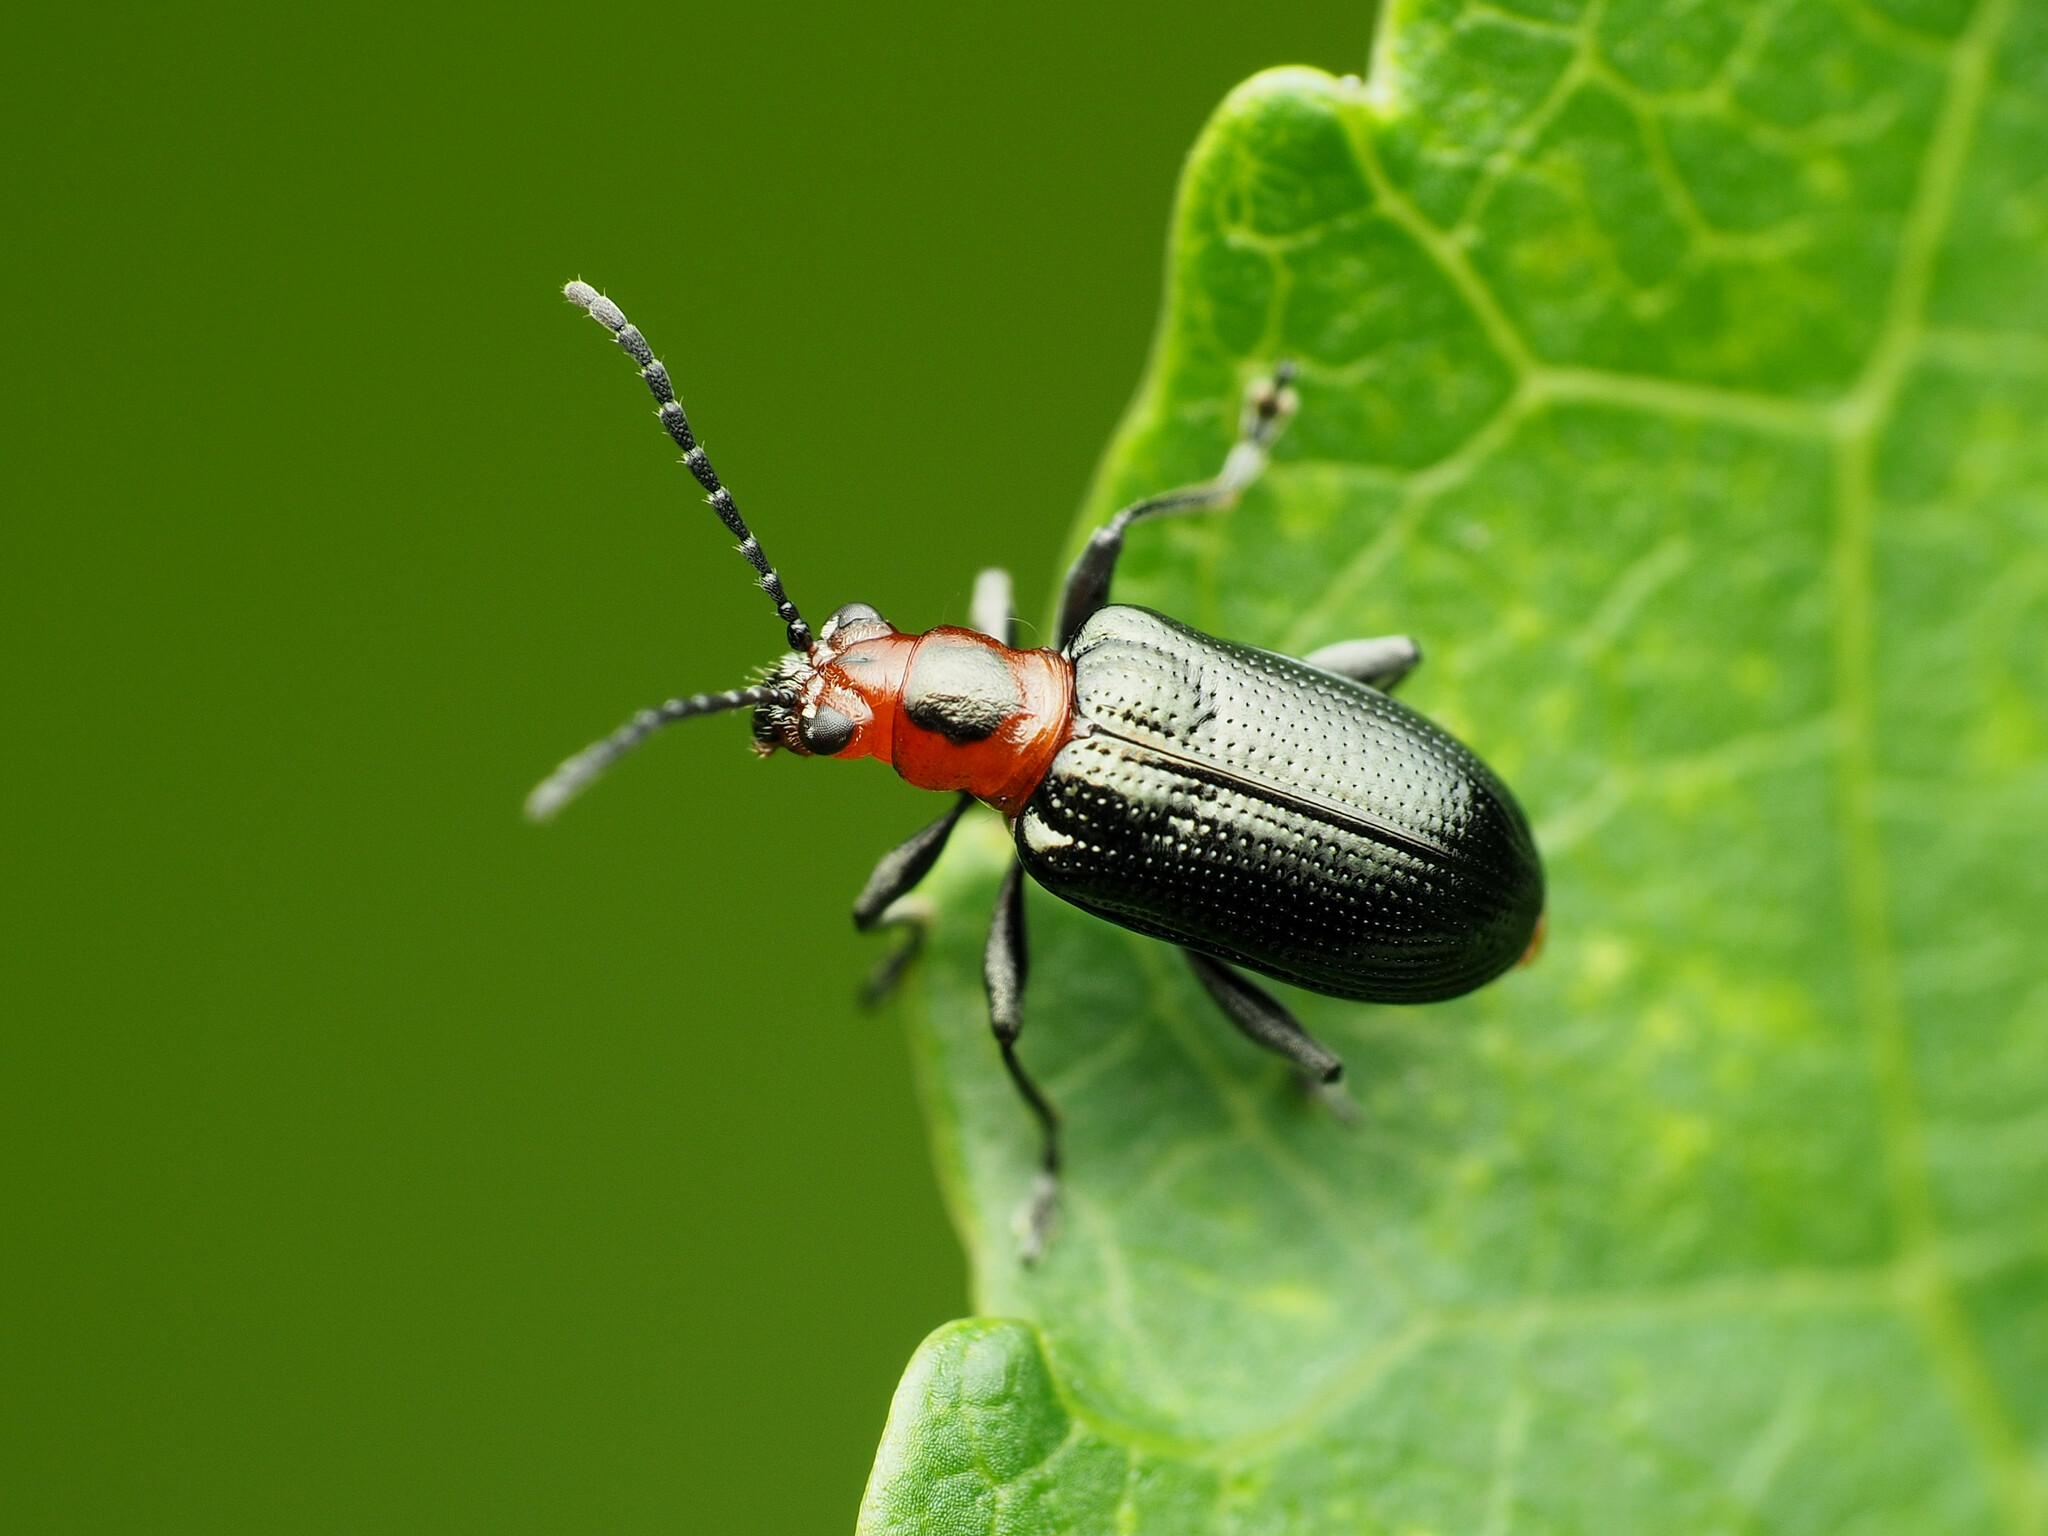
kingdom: Animalia
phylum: Arthropoda
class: Insecta
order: Coleoptera
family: Chrysomelidae
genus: Oulema
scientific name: Oulema sayi
